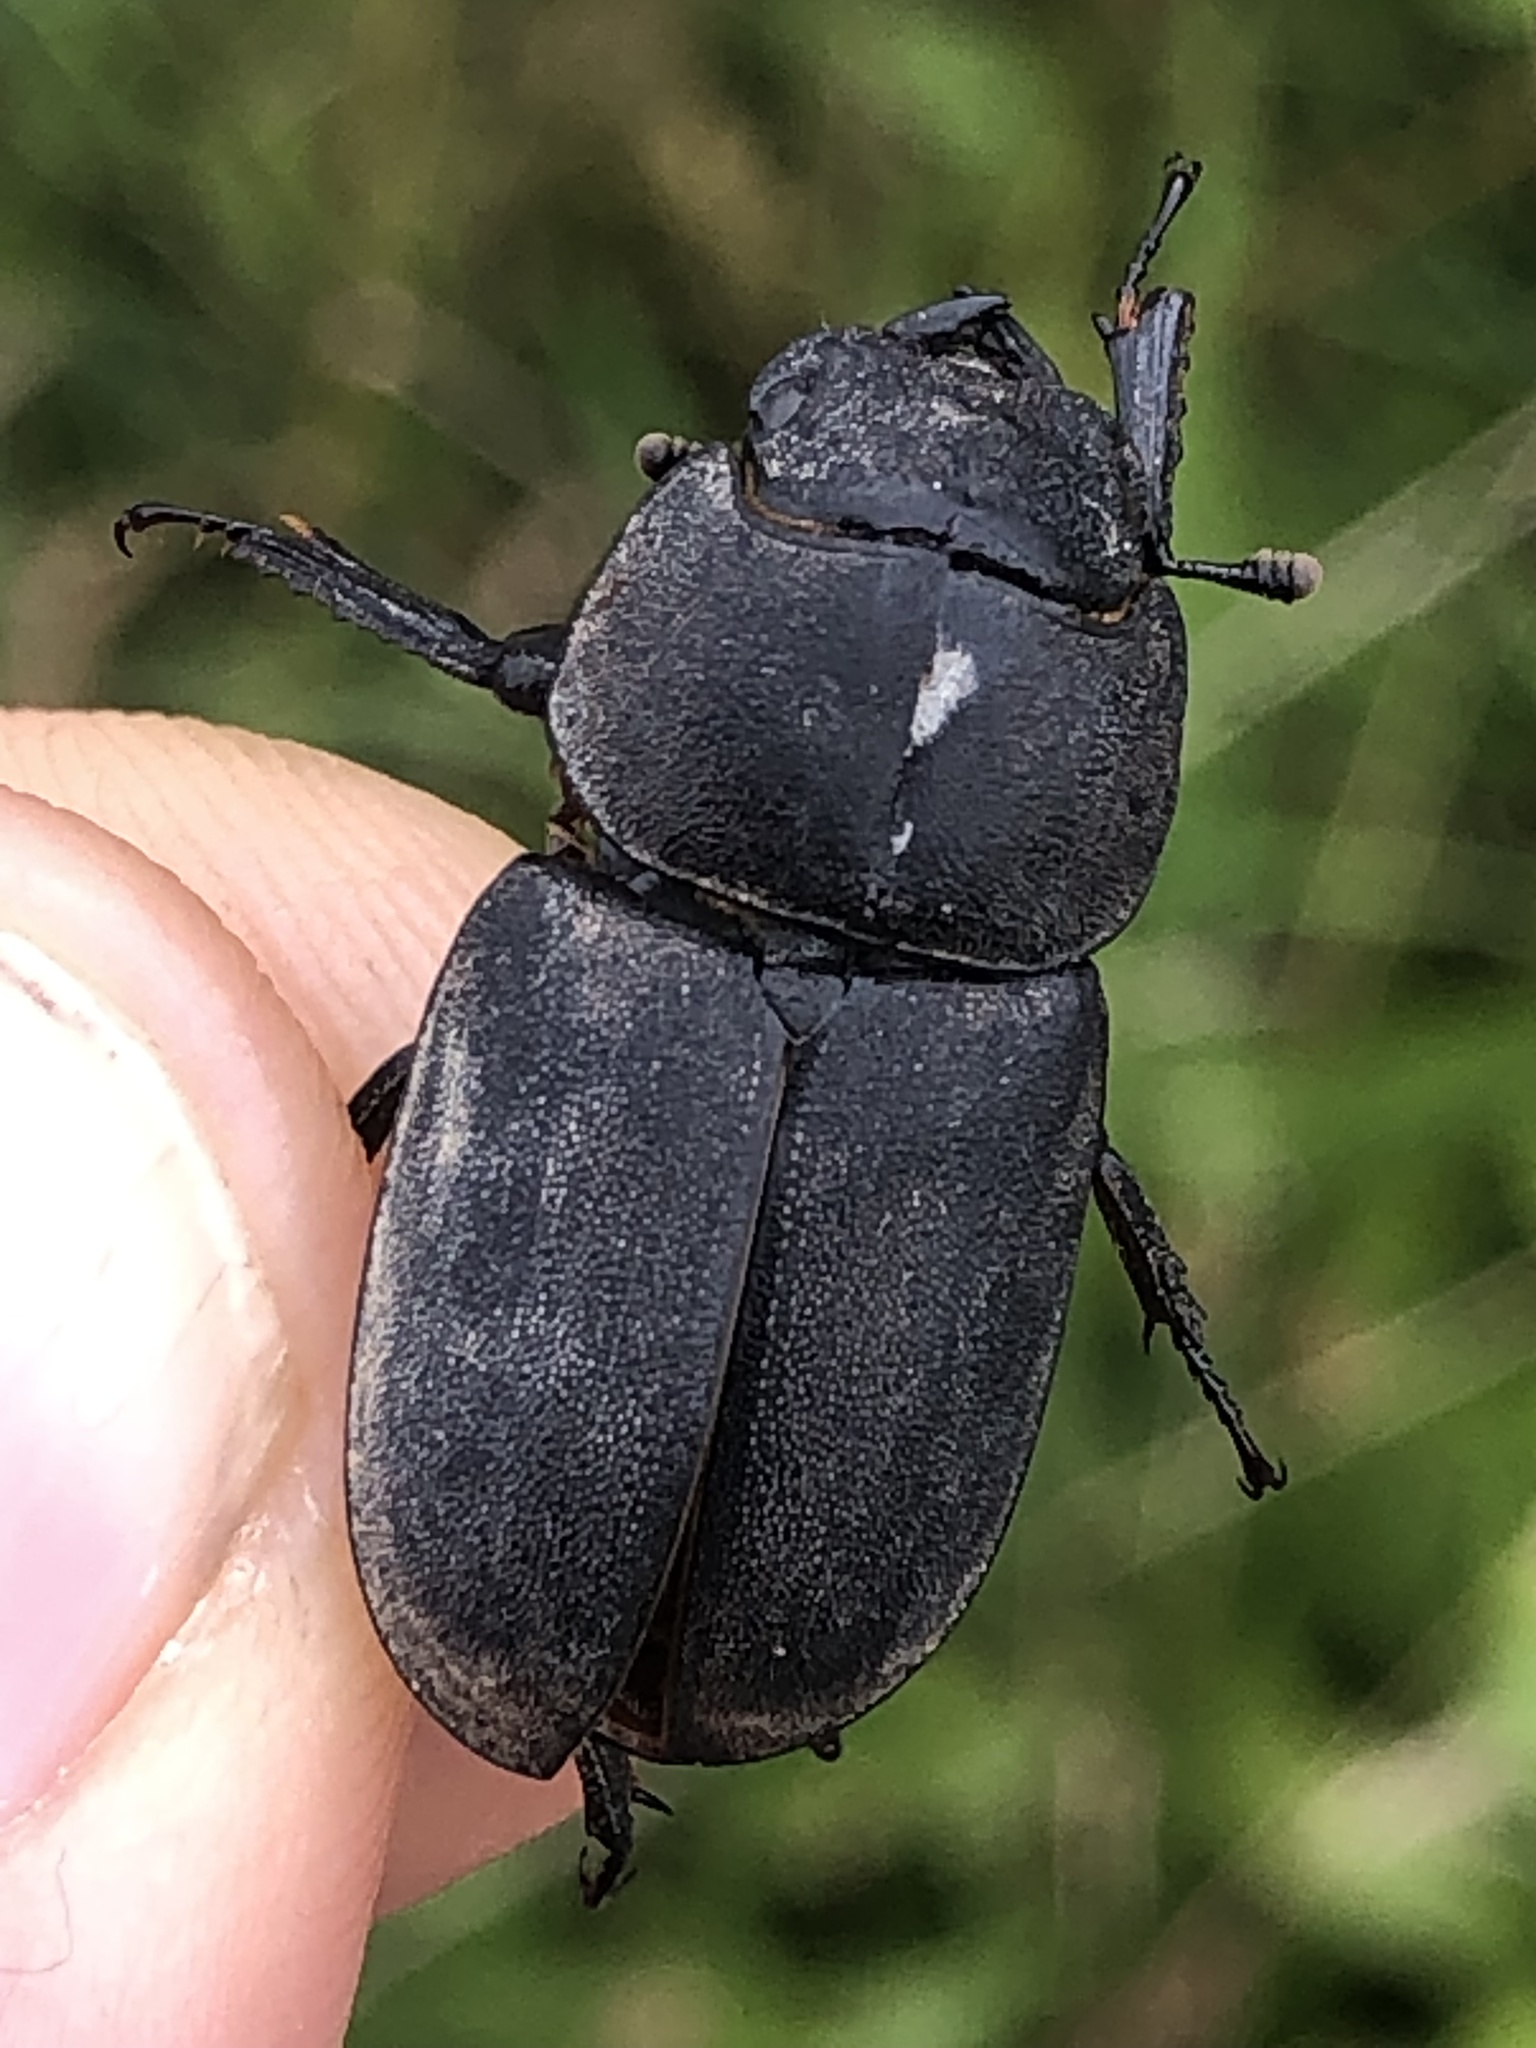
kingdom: Animalia
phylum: Arthropoda
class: Insecta
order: Coleoptera
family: Lucanidae
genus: Dorcus
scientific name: Dorcus parallelipipedus
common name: Lesser stag beetle
